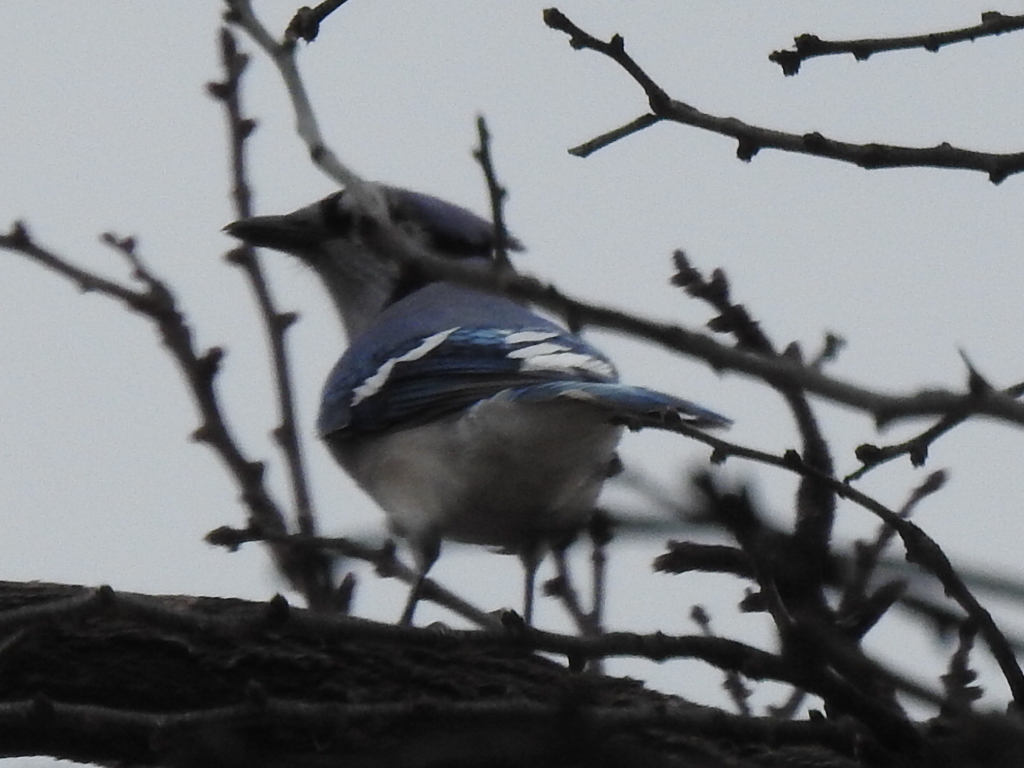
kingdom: Animalia
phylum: Chordata
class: Aves
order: Passeriformes
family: Corvidae
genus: Cyanocitta
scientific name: Cyanocitta cristata
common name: Blue jay
